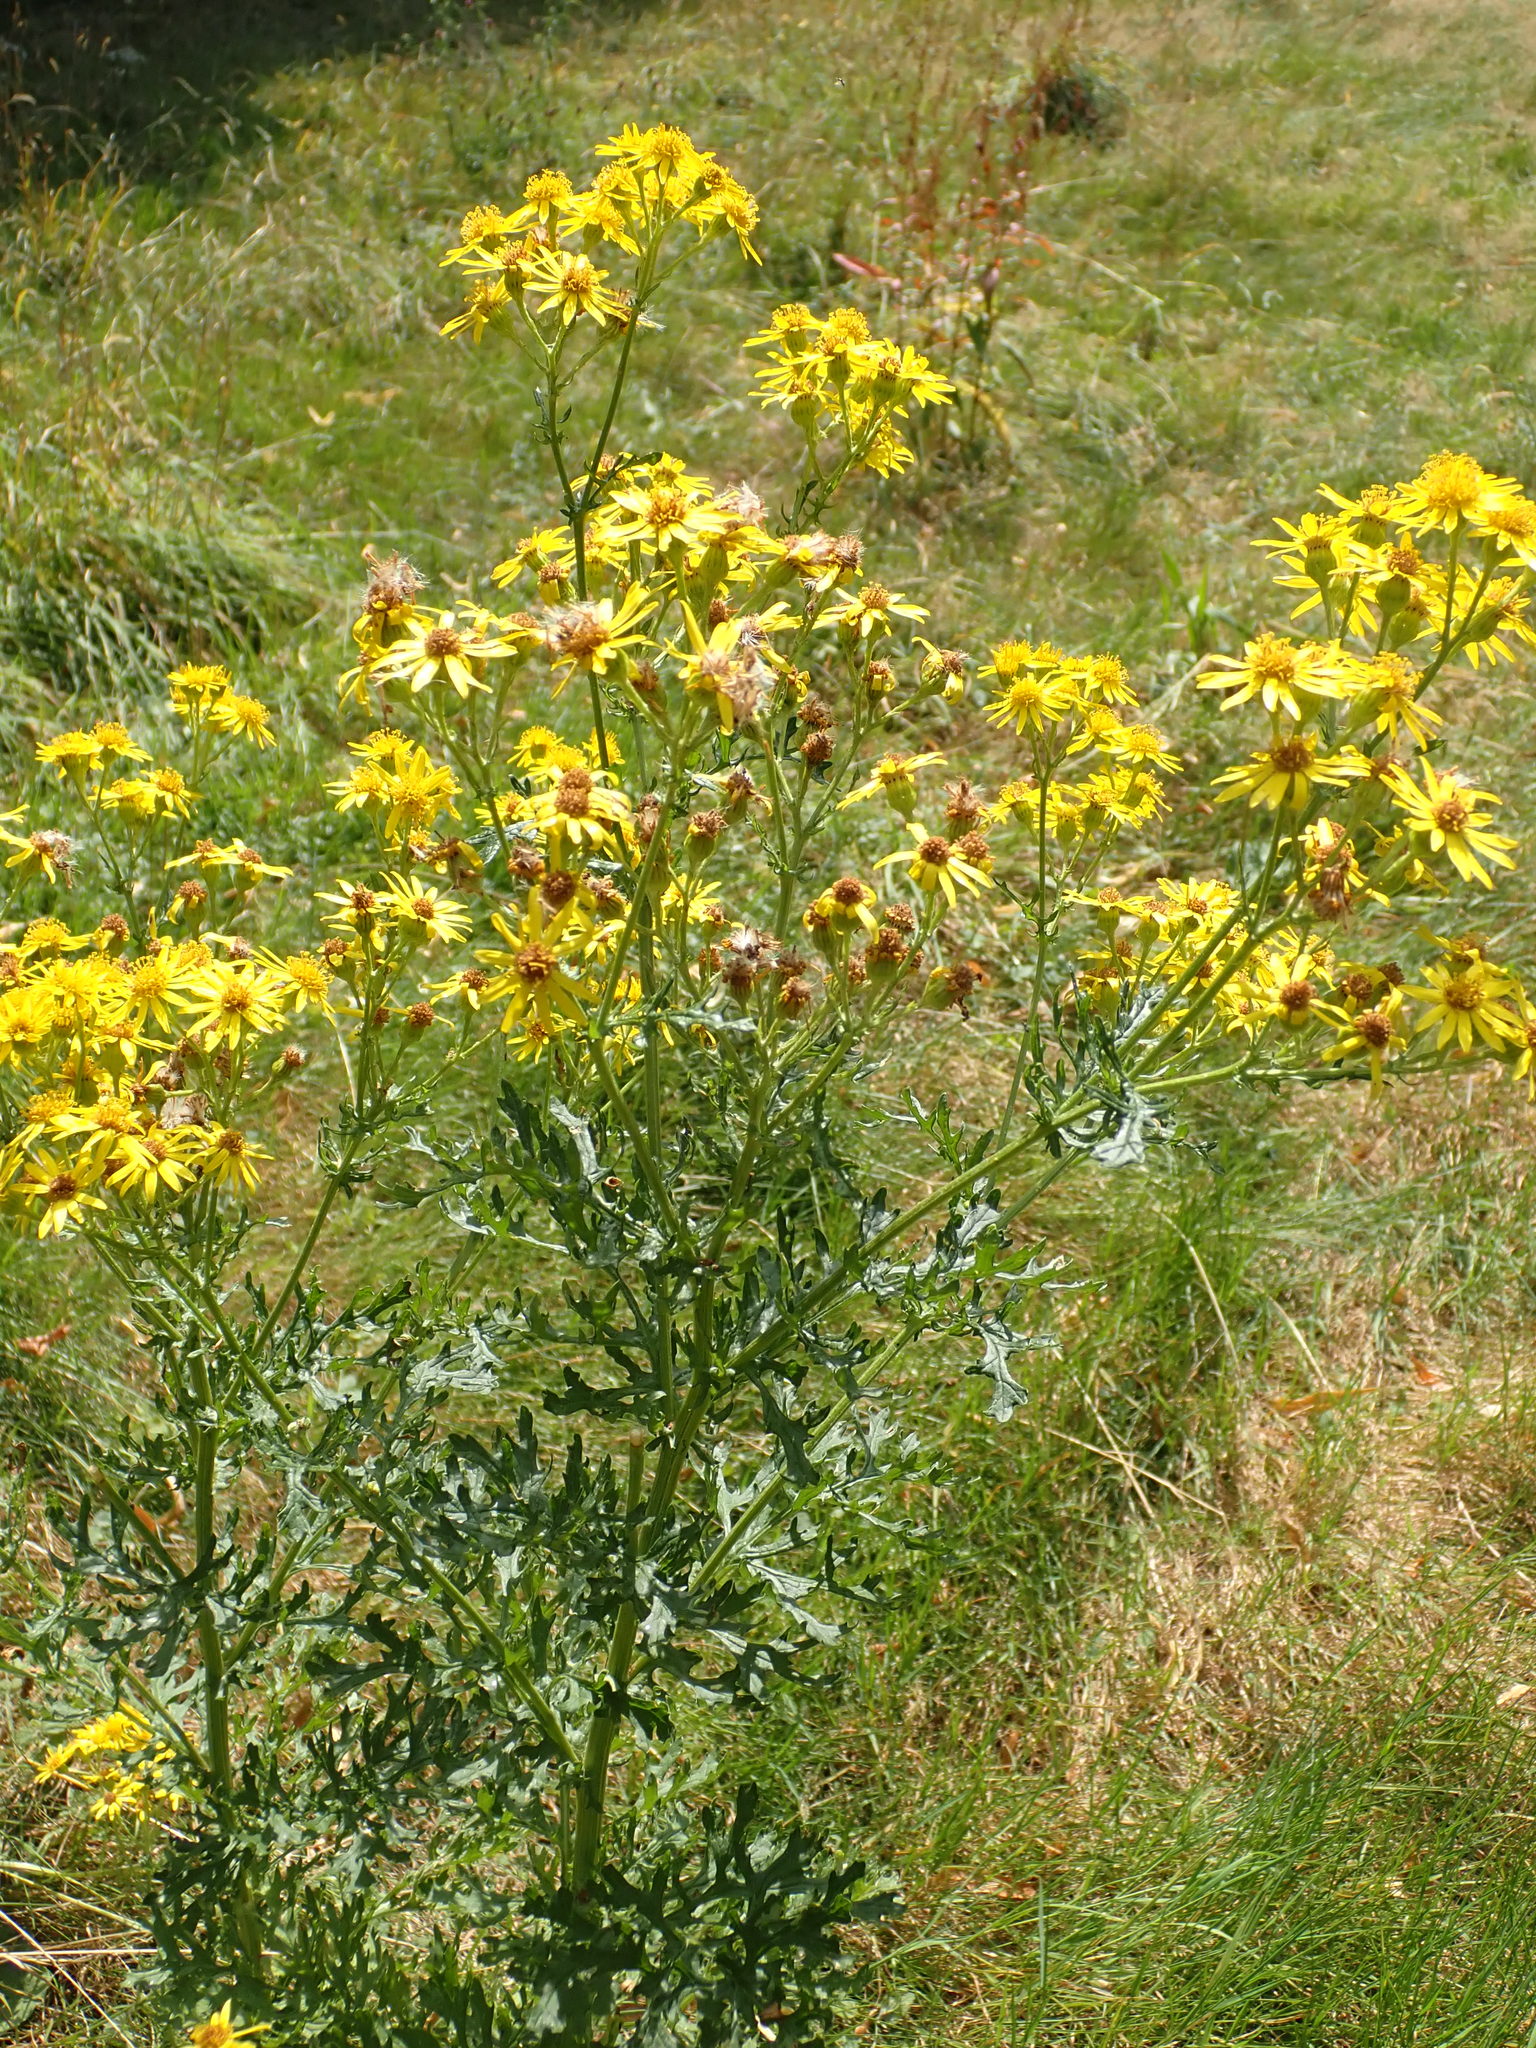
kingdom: Plantae
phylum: Tracheophyta
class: Magnoliopsida
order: Asterales
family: Asteraceae
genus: Jacobaea
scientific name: Jacobaea vulgaris
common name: Stinking willie
